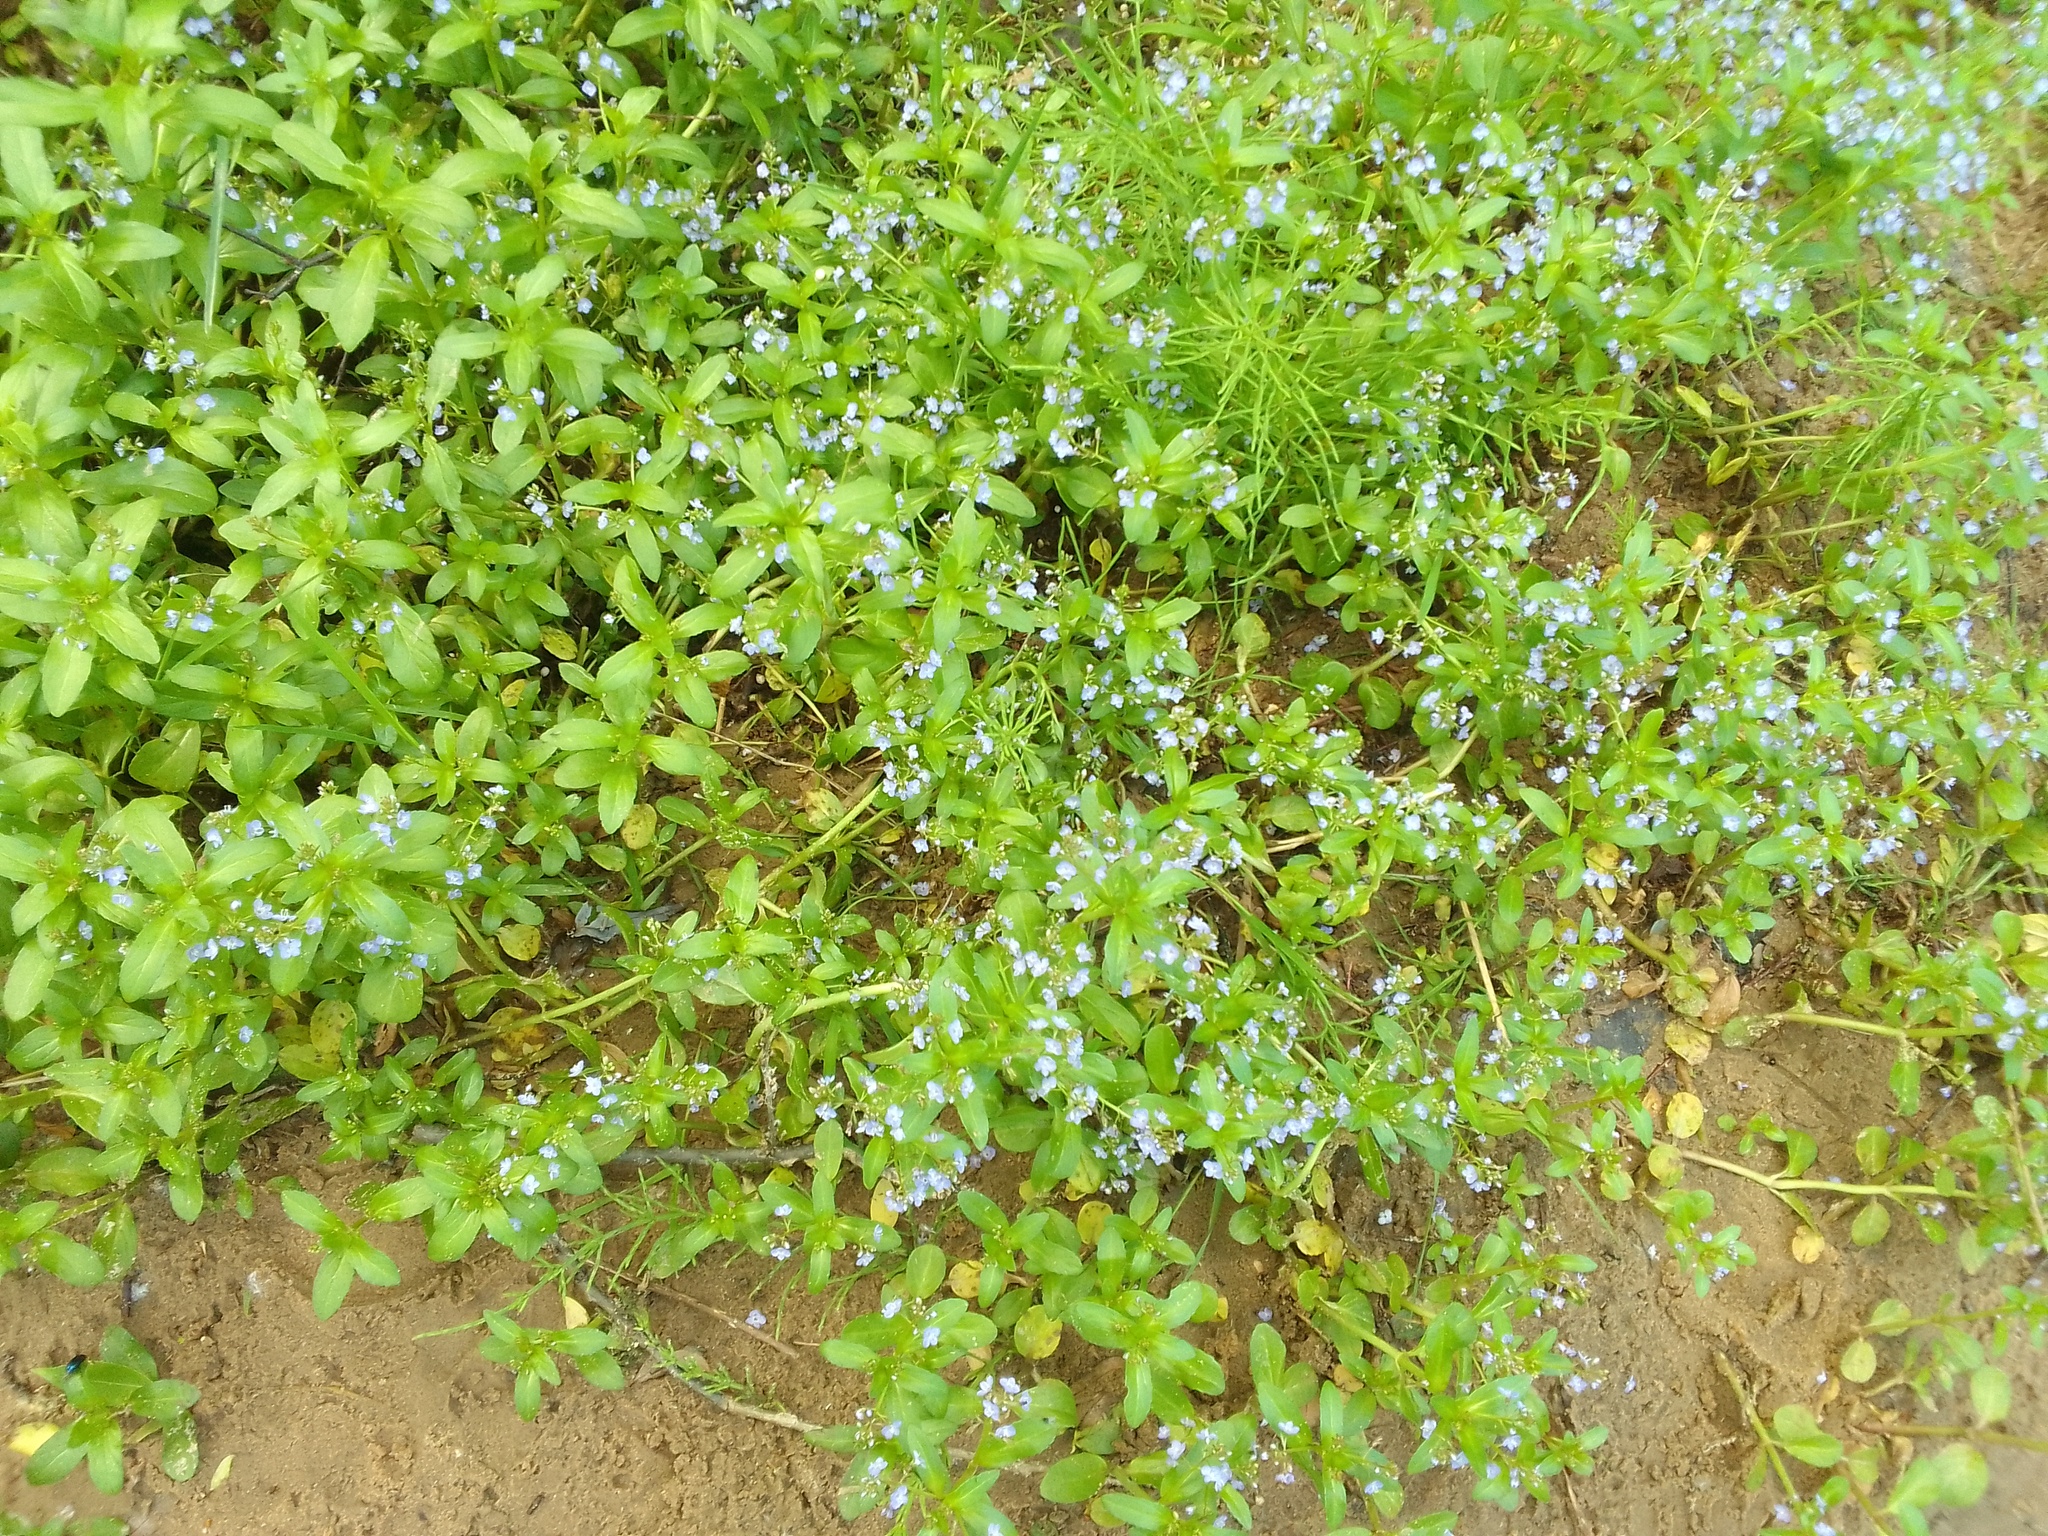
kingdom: Plantae
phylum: Tracheophyta
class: Magnoliopsida
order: Lamiales
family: Plantaginaceae
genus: Veronica
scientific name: Veronica beccabunga
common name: Brooklime
